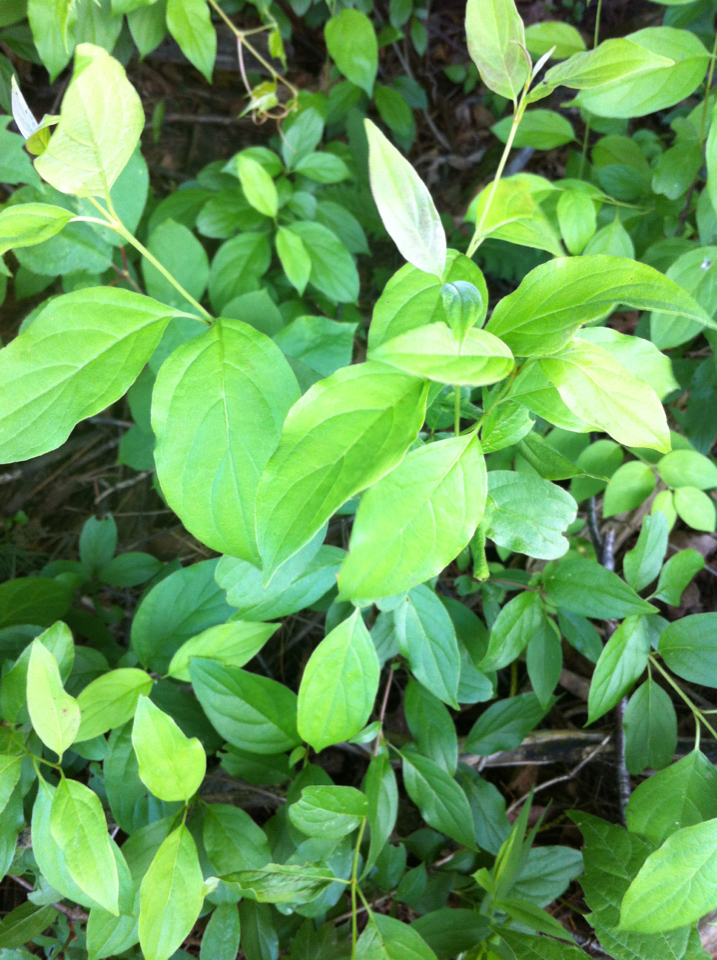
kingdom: Plantae
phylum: Tracheophyta
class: Magnoliopsida
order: Cornales
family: Cornaceae
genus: Cornus
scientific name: Cornus racemosa
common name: Panicled dogwood
